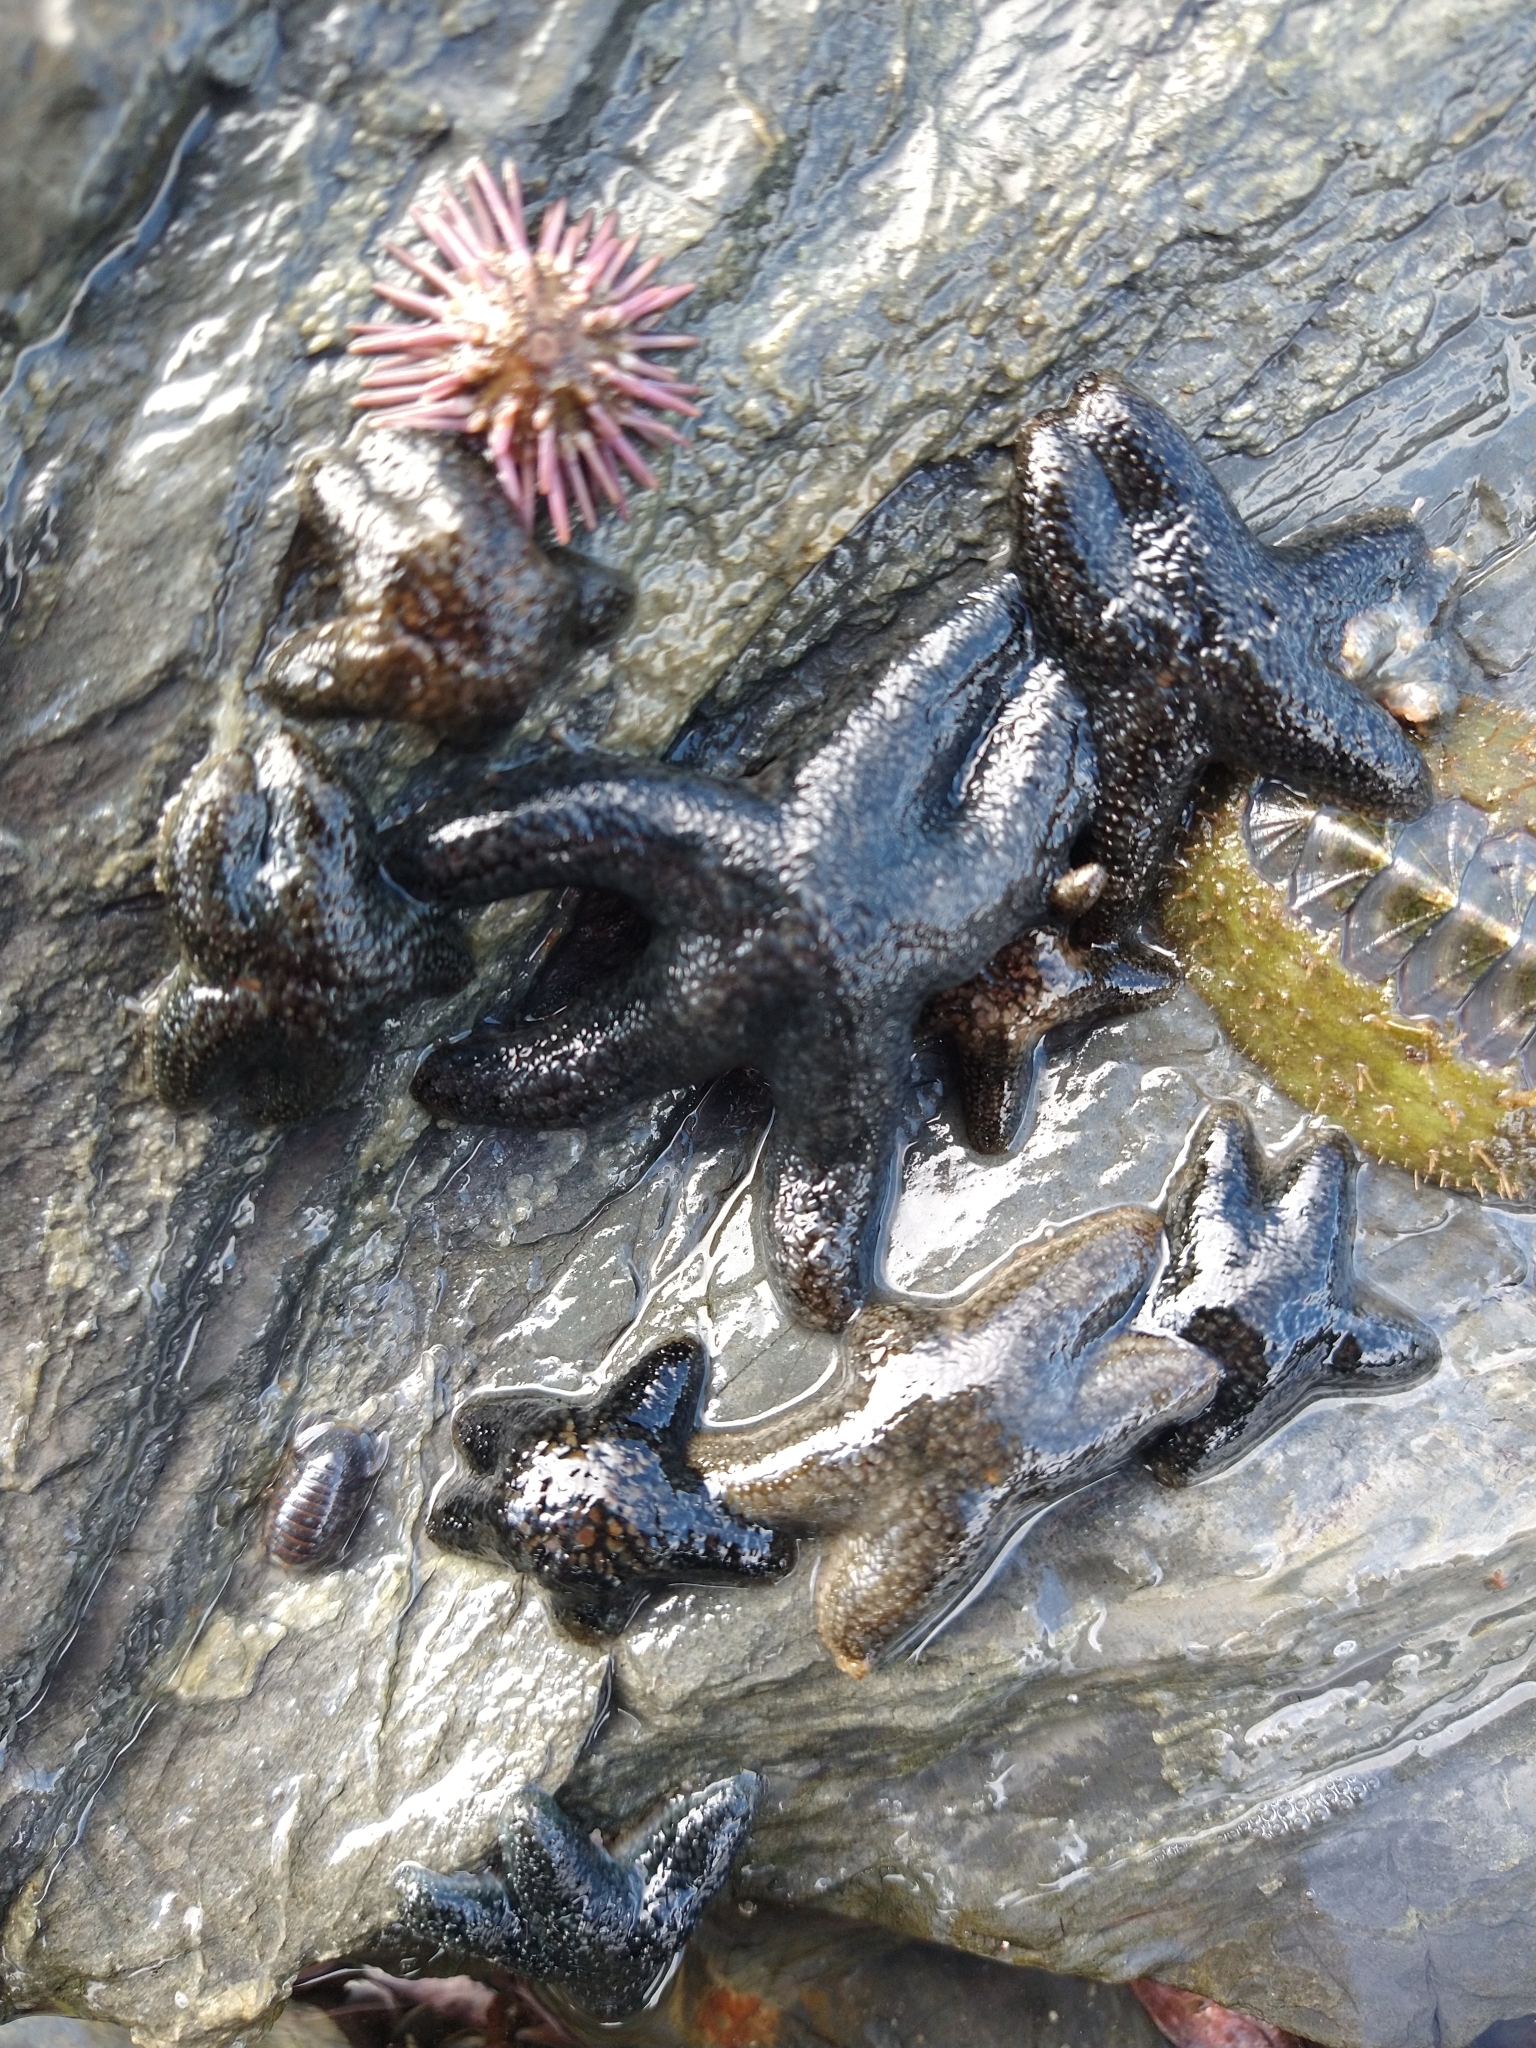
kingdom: Animalia
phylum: Echinodermata
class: Asteroidea
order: Forcipulatida
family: Asteriidae
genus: Anasterias
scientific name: Anasterias antarctica
